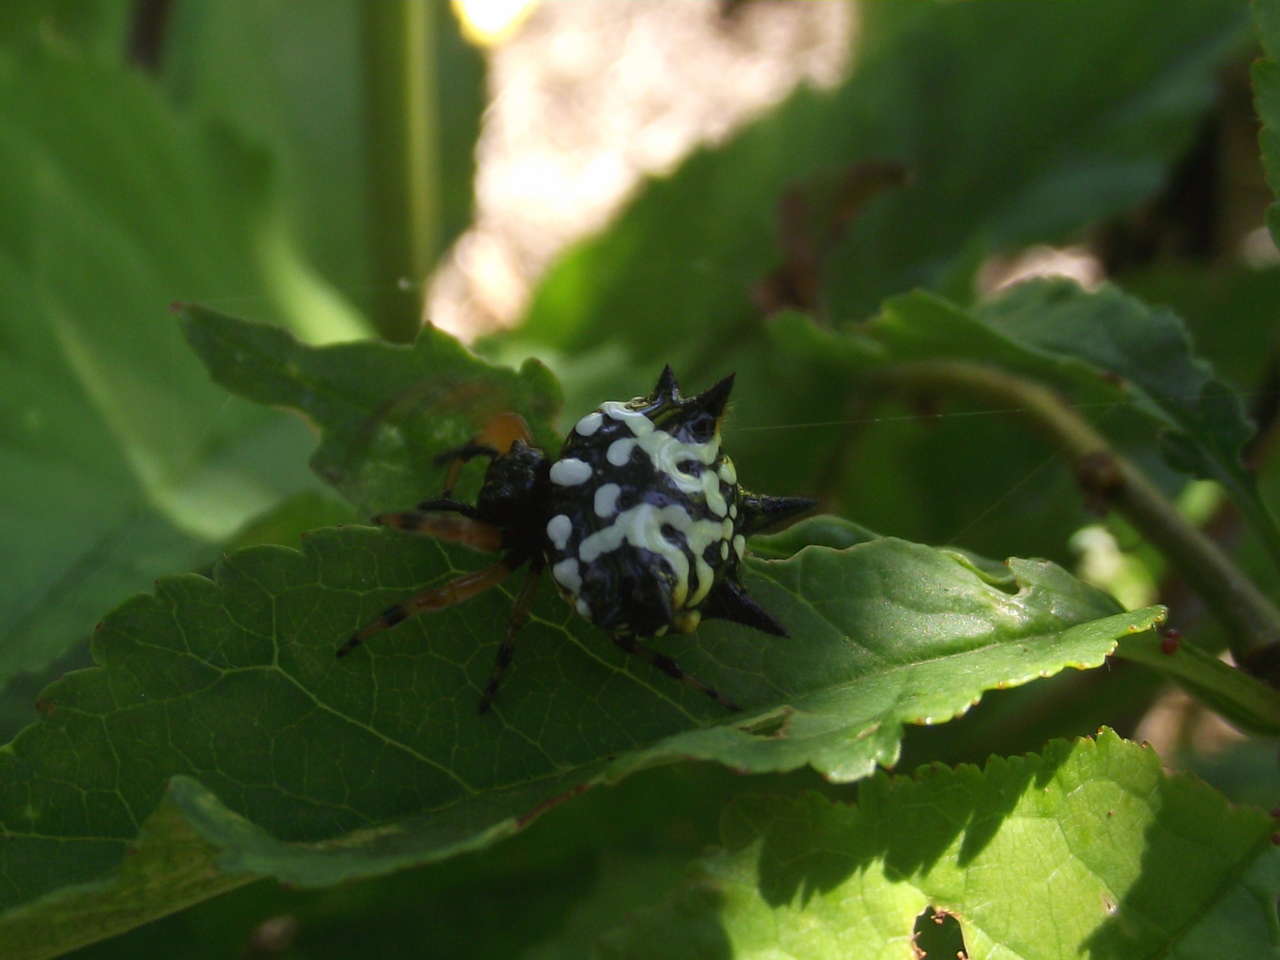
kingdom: Animalia
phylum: Arthropoda
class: Arachnida
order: Araneae
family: Araneidae
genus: Austracantha
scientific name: Austracantha minax
